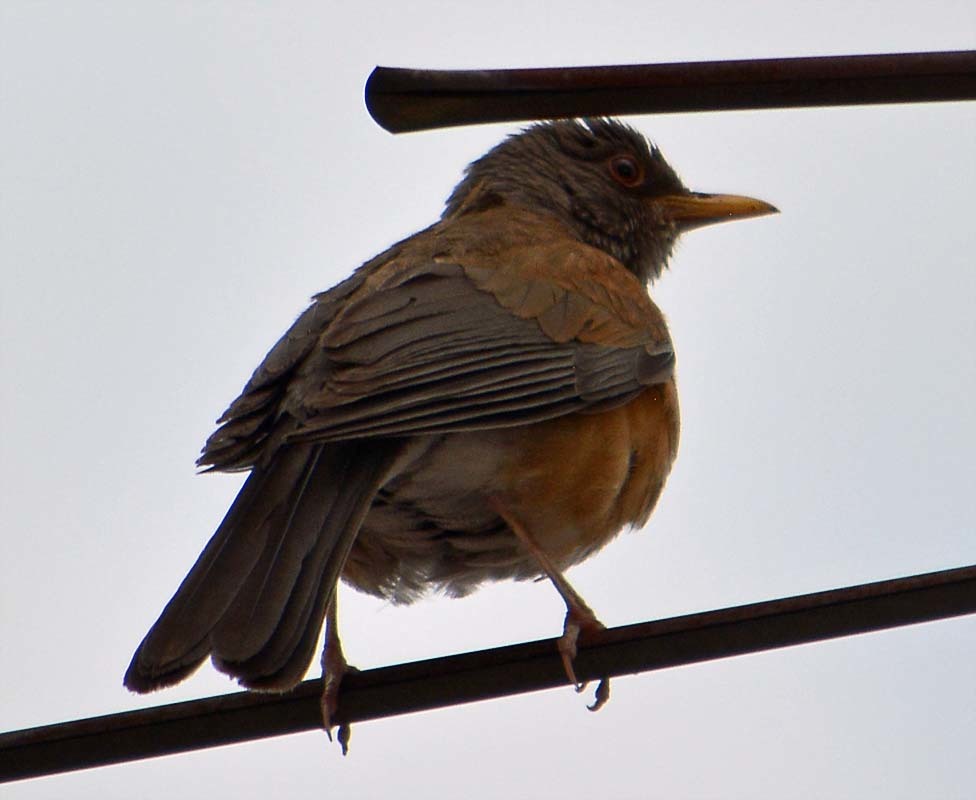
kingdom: Animalia
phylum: Chordata
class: Aves
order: Passeriformes
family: Turdidae
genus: Turdus
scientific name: Turdus rufopalliatus
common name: Rufous-backed robin
